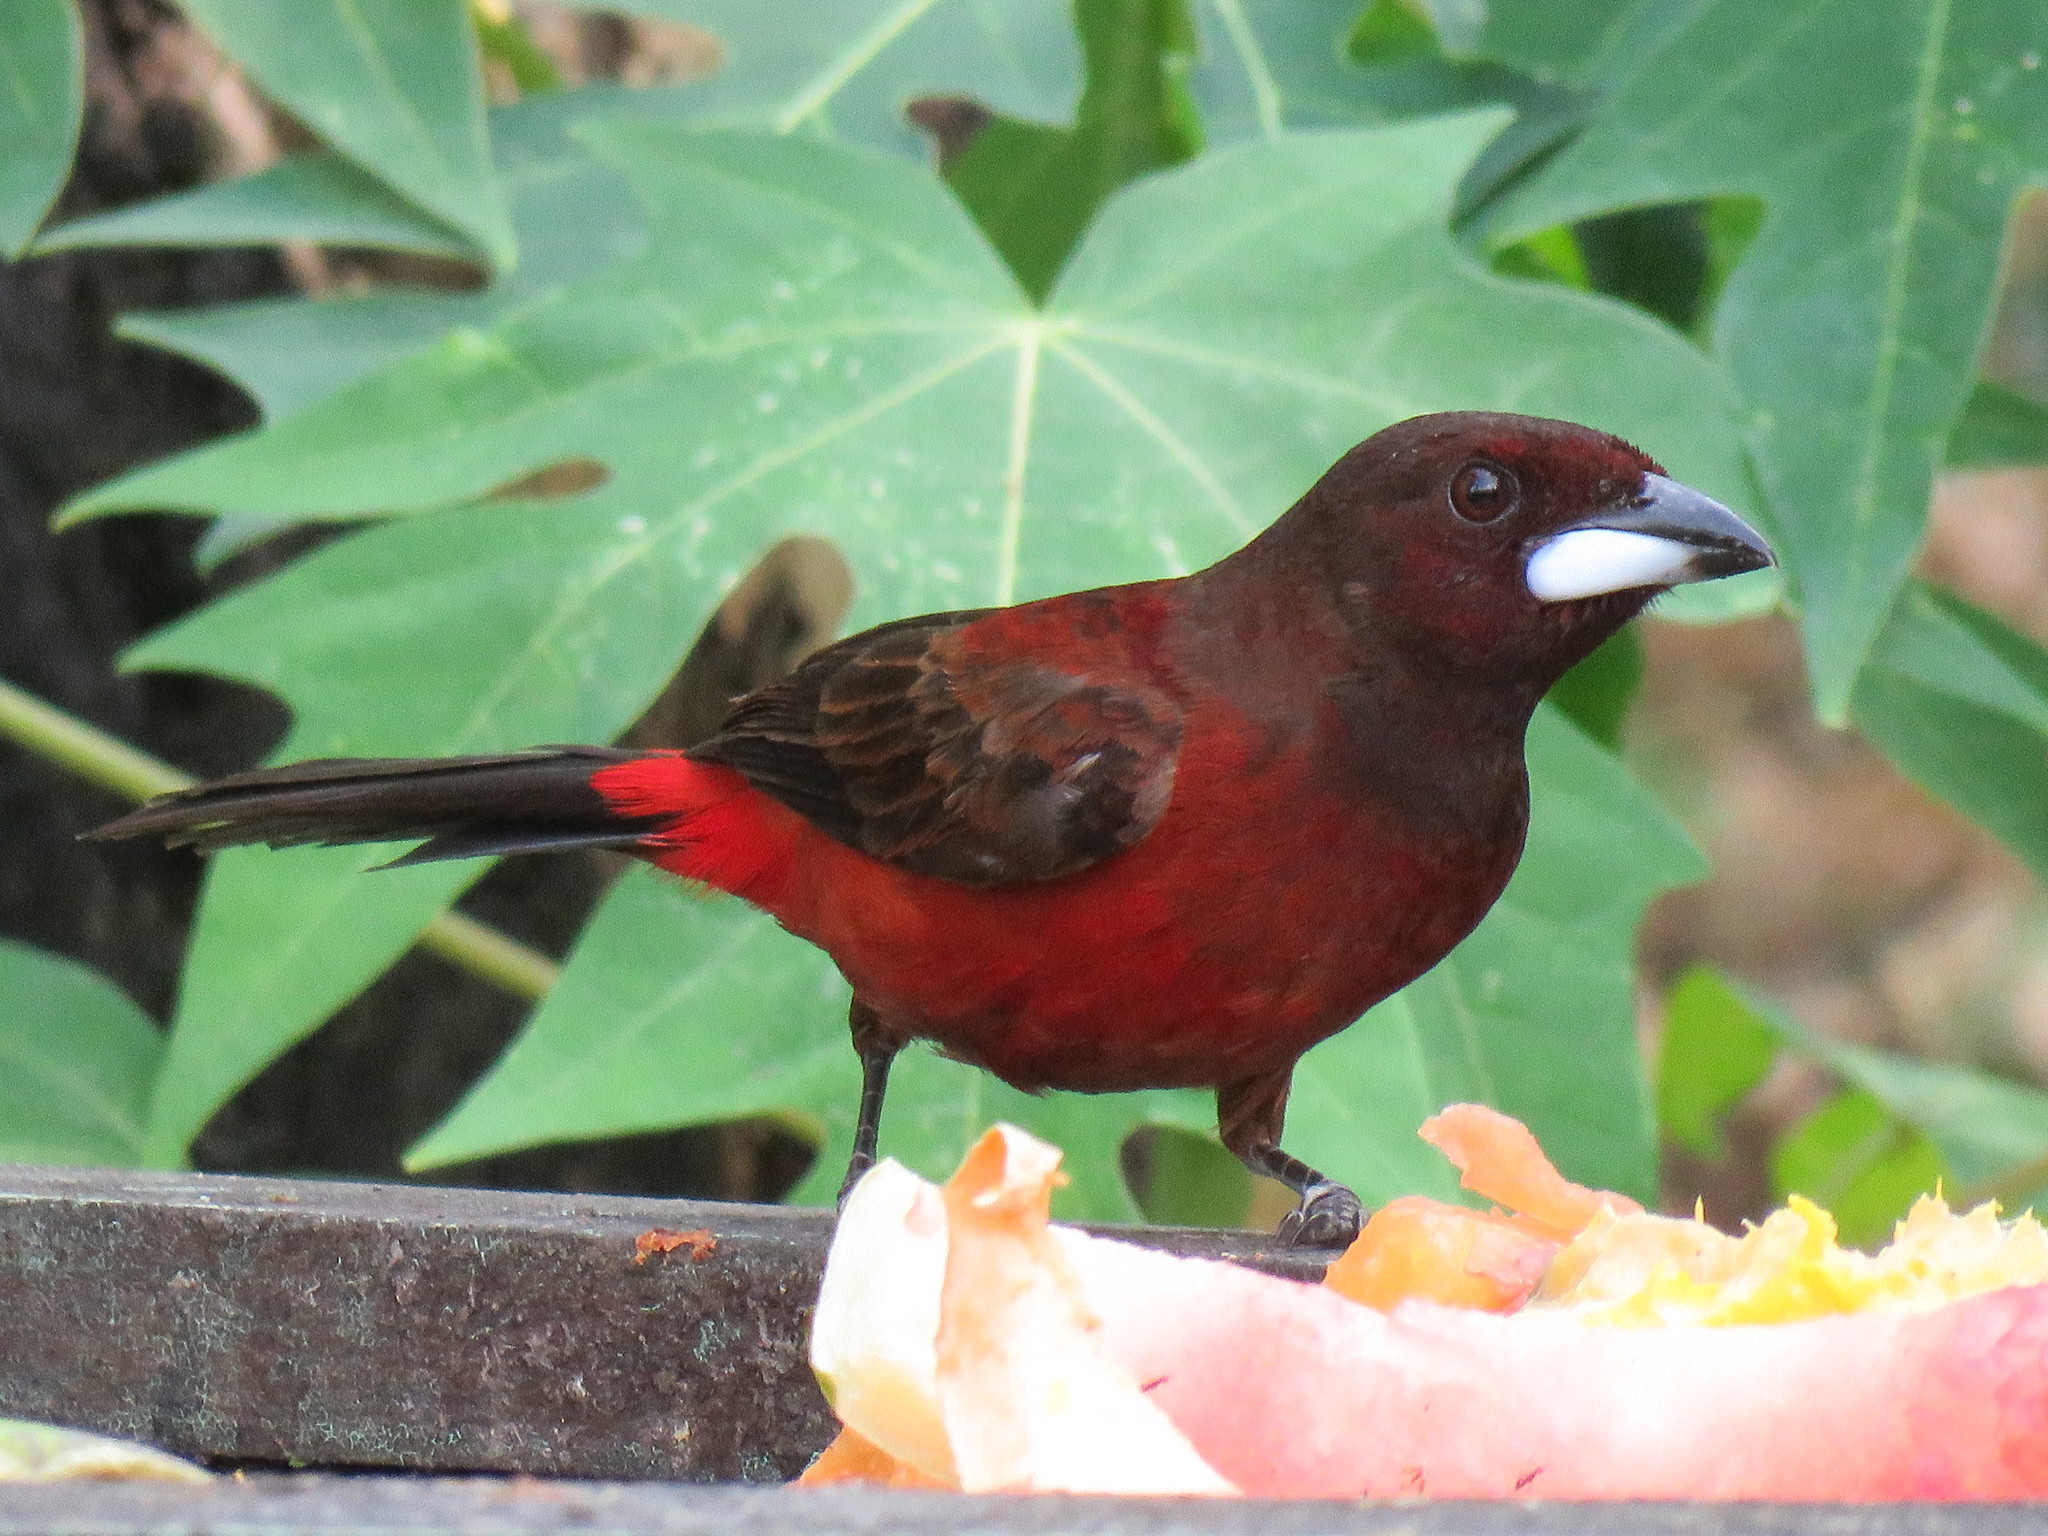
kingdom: Animalia
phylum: Chordata
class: Aves
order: Passeriformes
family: Thraupidae
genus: Ramphocelus
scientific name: Ramphocelus dimidiatus
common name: Crimson-backed tanager
